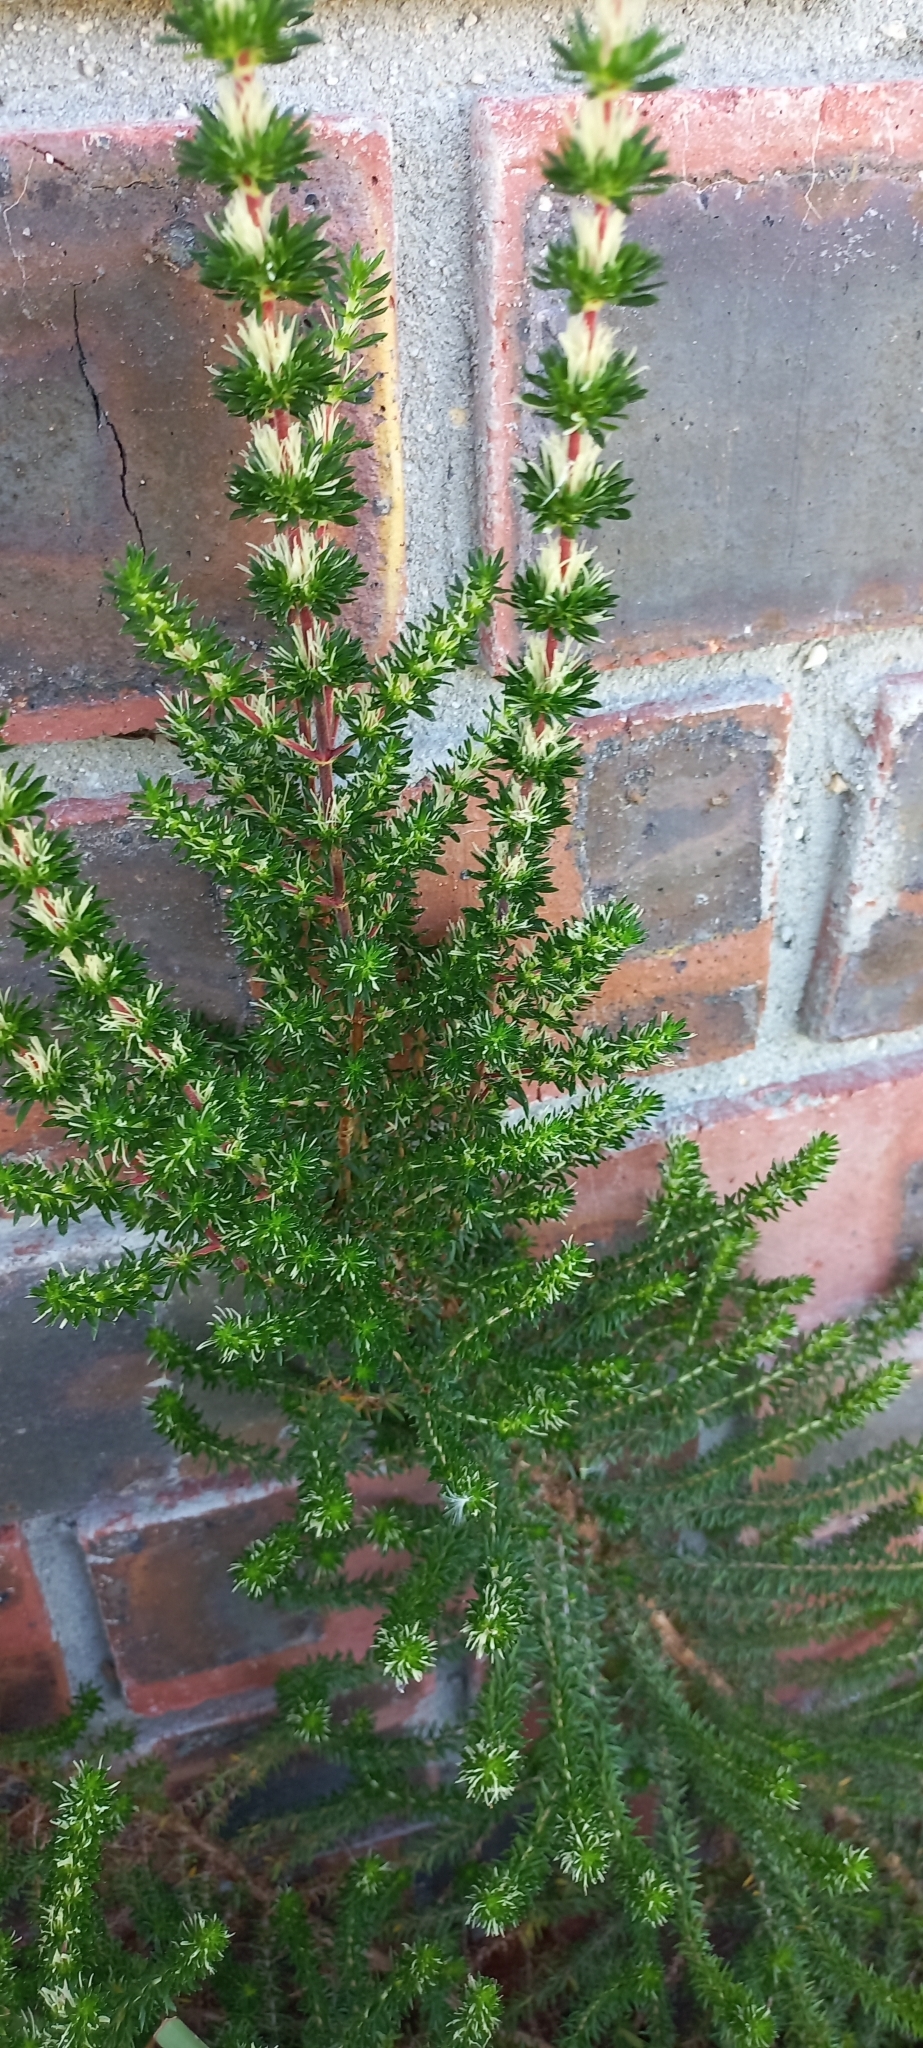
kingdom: Plantae
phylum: Tracheophyta
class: Magnoliopsida
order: Gentianales
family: Rubiaceae
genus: Anthospermum
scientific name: Anthospermum aethiopicum
